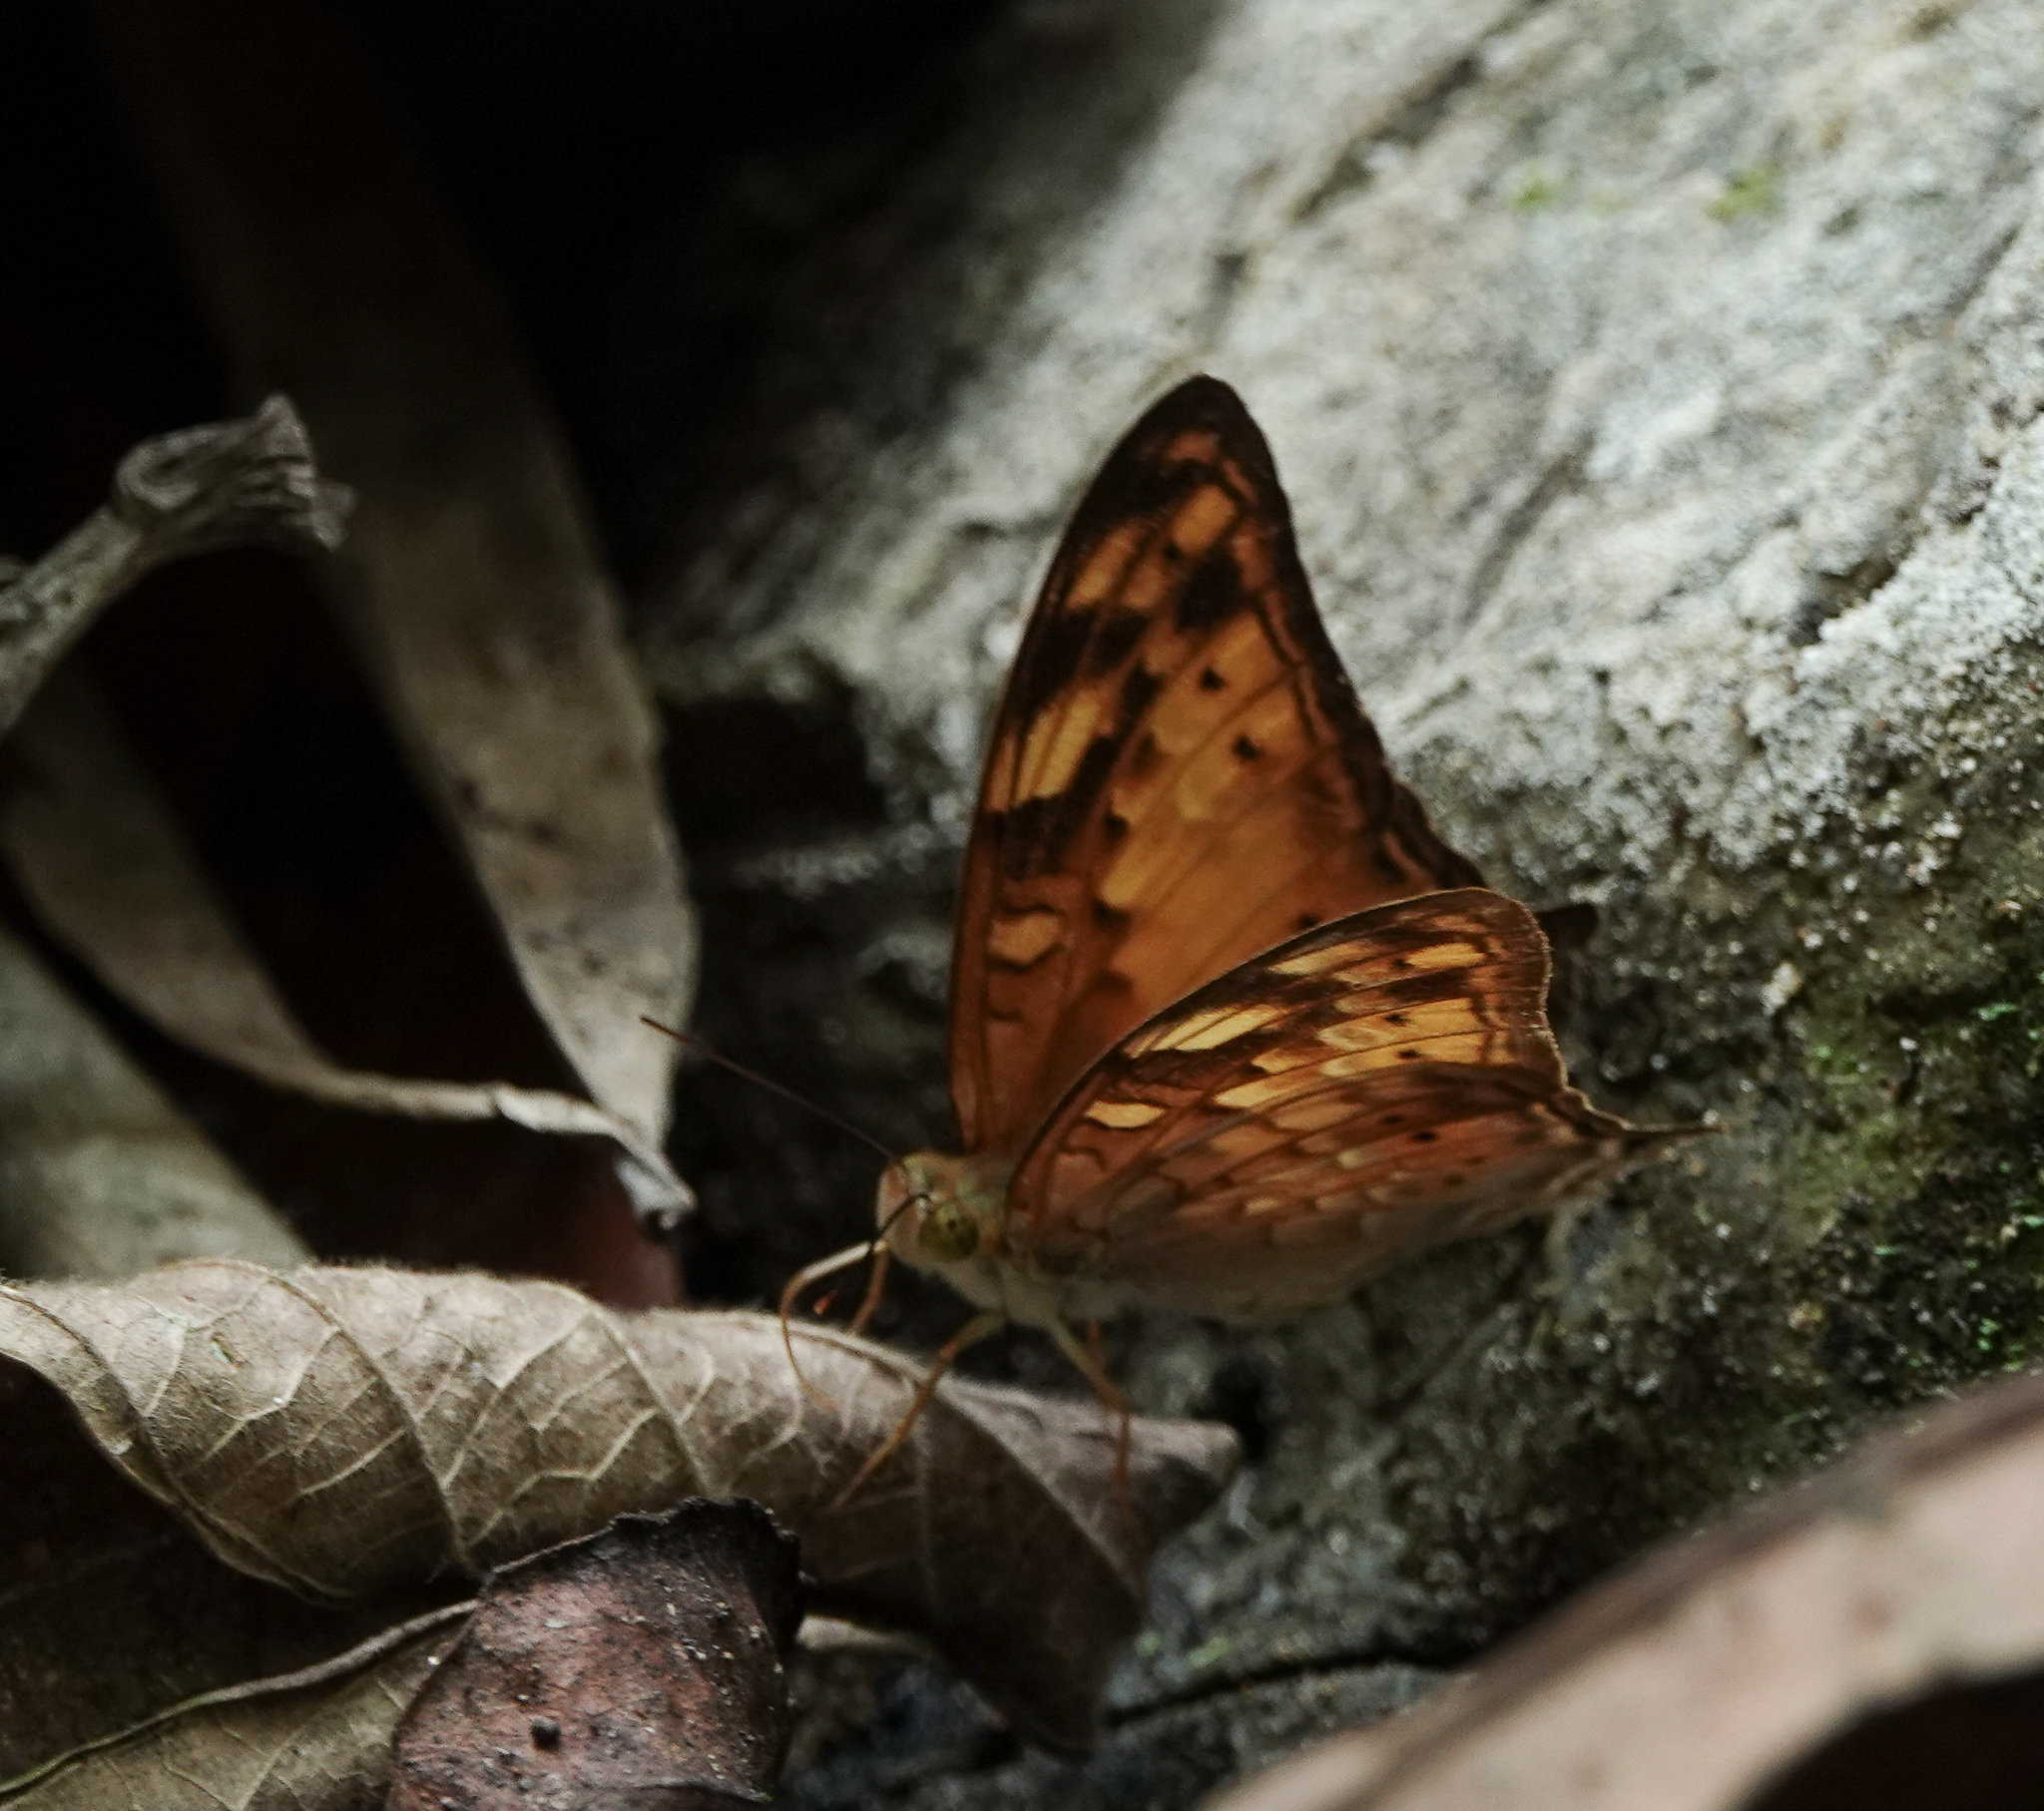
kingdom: Animalia
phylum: Arthropoda
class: Insecta
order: Lepidoptera
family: Nymphalidae
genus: Vagrans
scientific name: Vagrans sinha
